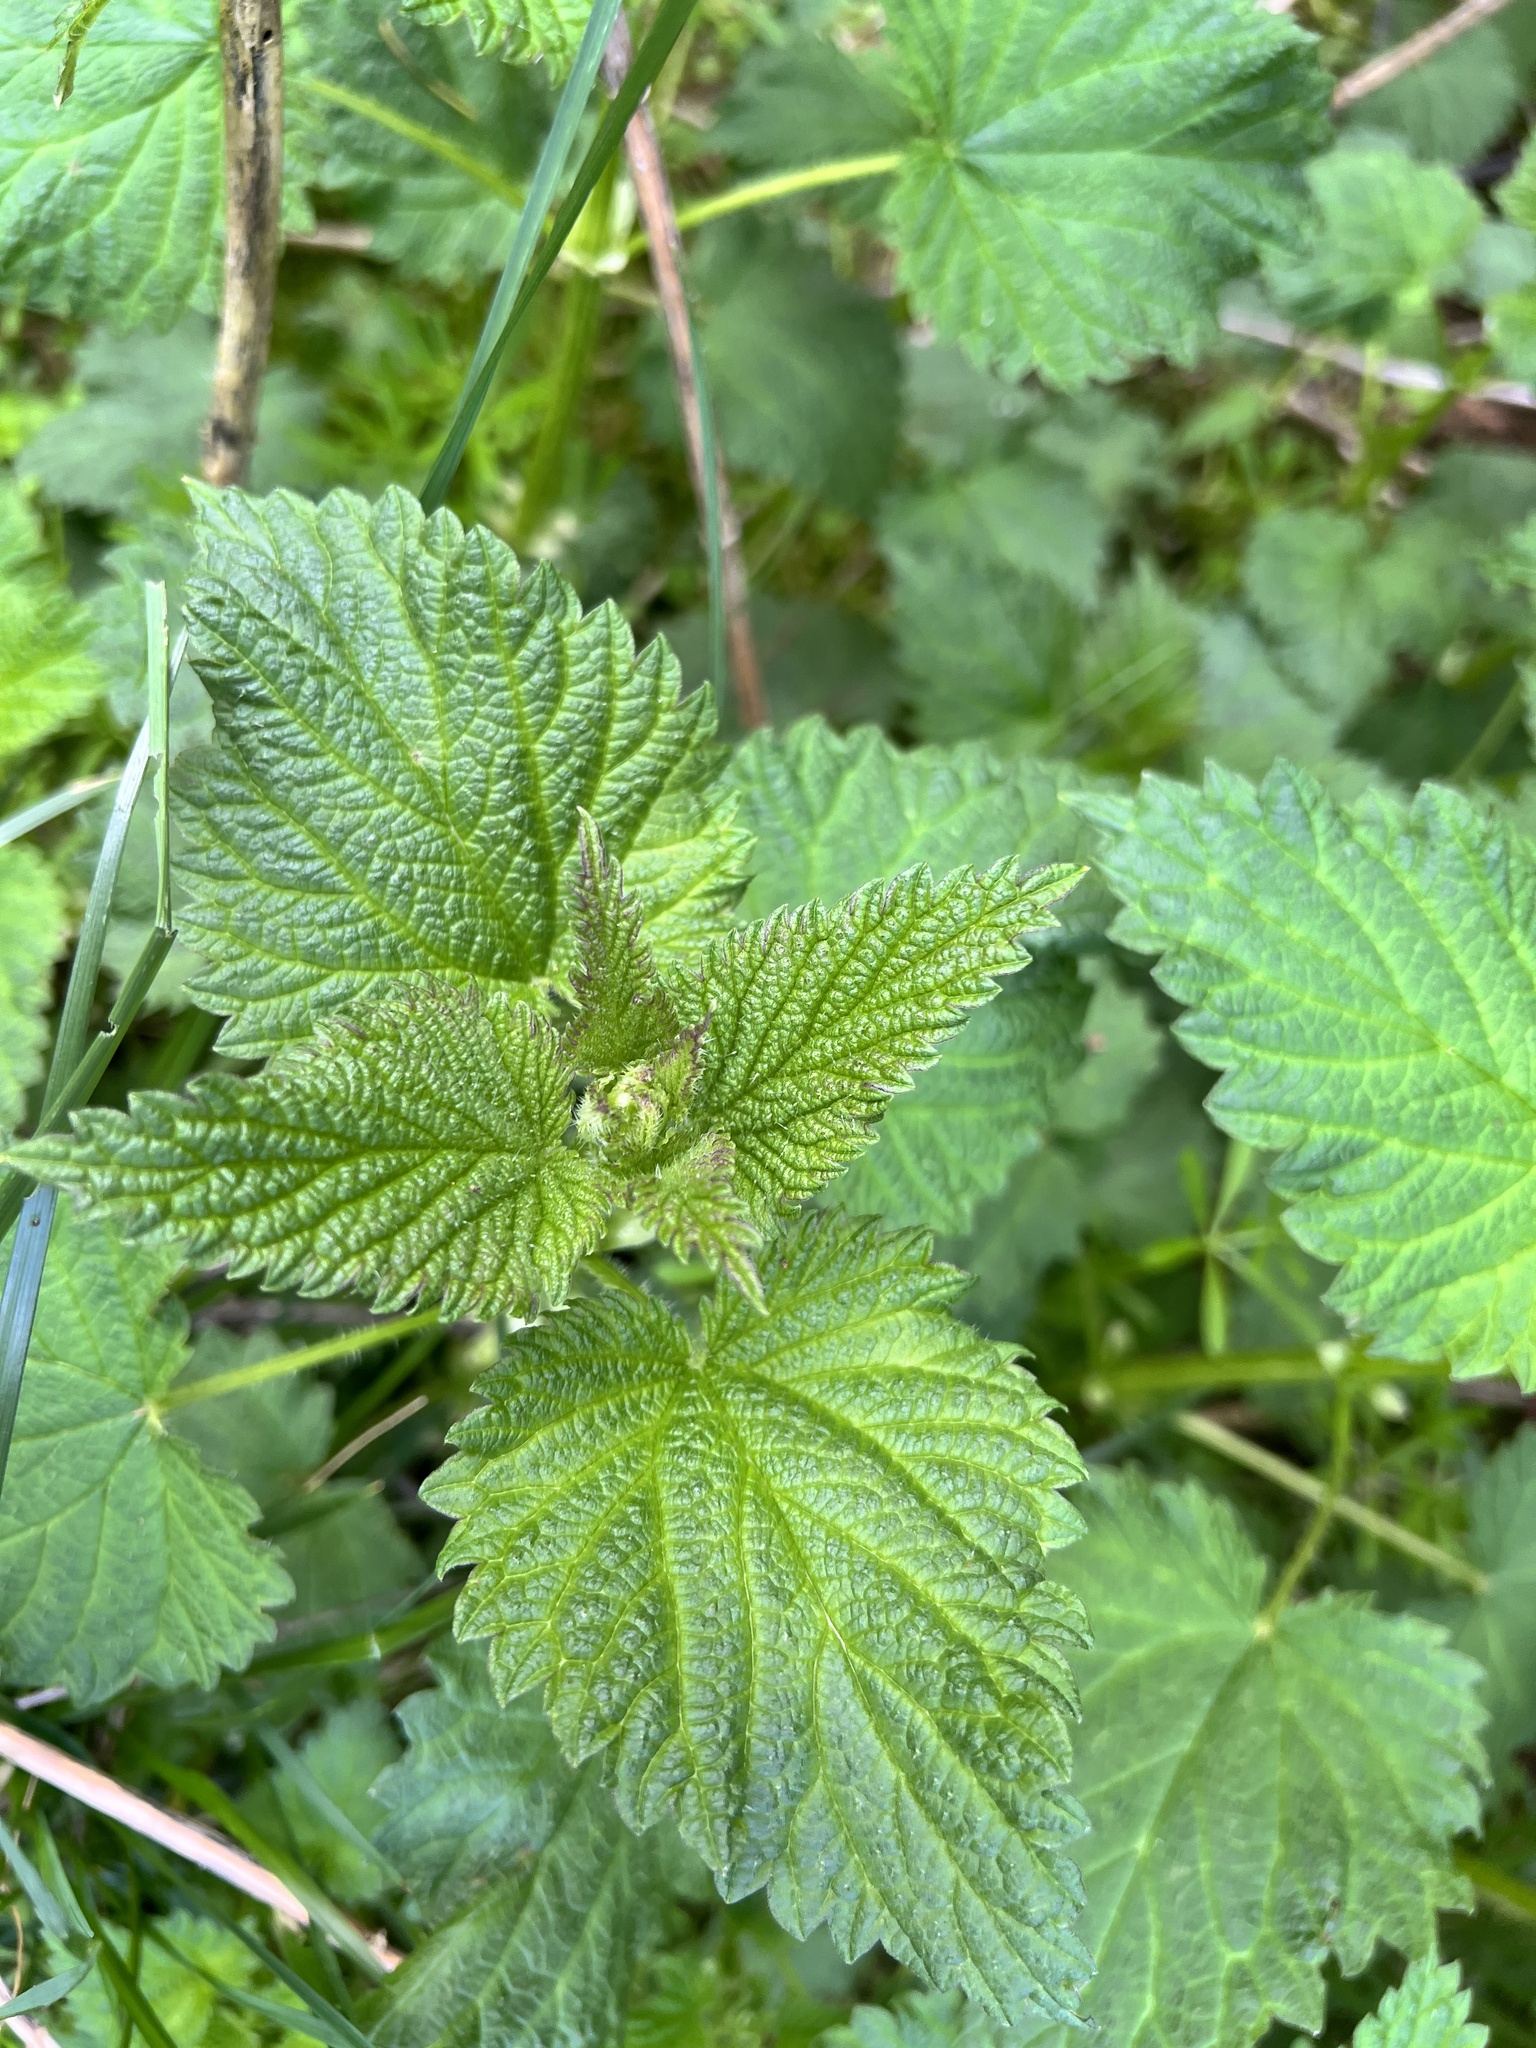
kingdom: Plantae
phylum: Tracheophyta
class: Magnoliopsida
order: Rosales
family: Urticaceae
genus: Urtica
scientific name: Urtica gracilis
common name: Slender stinging nettle
